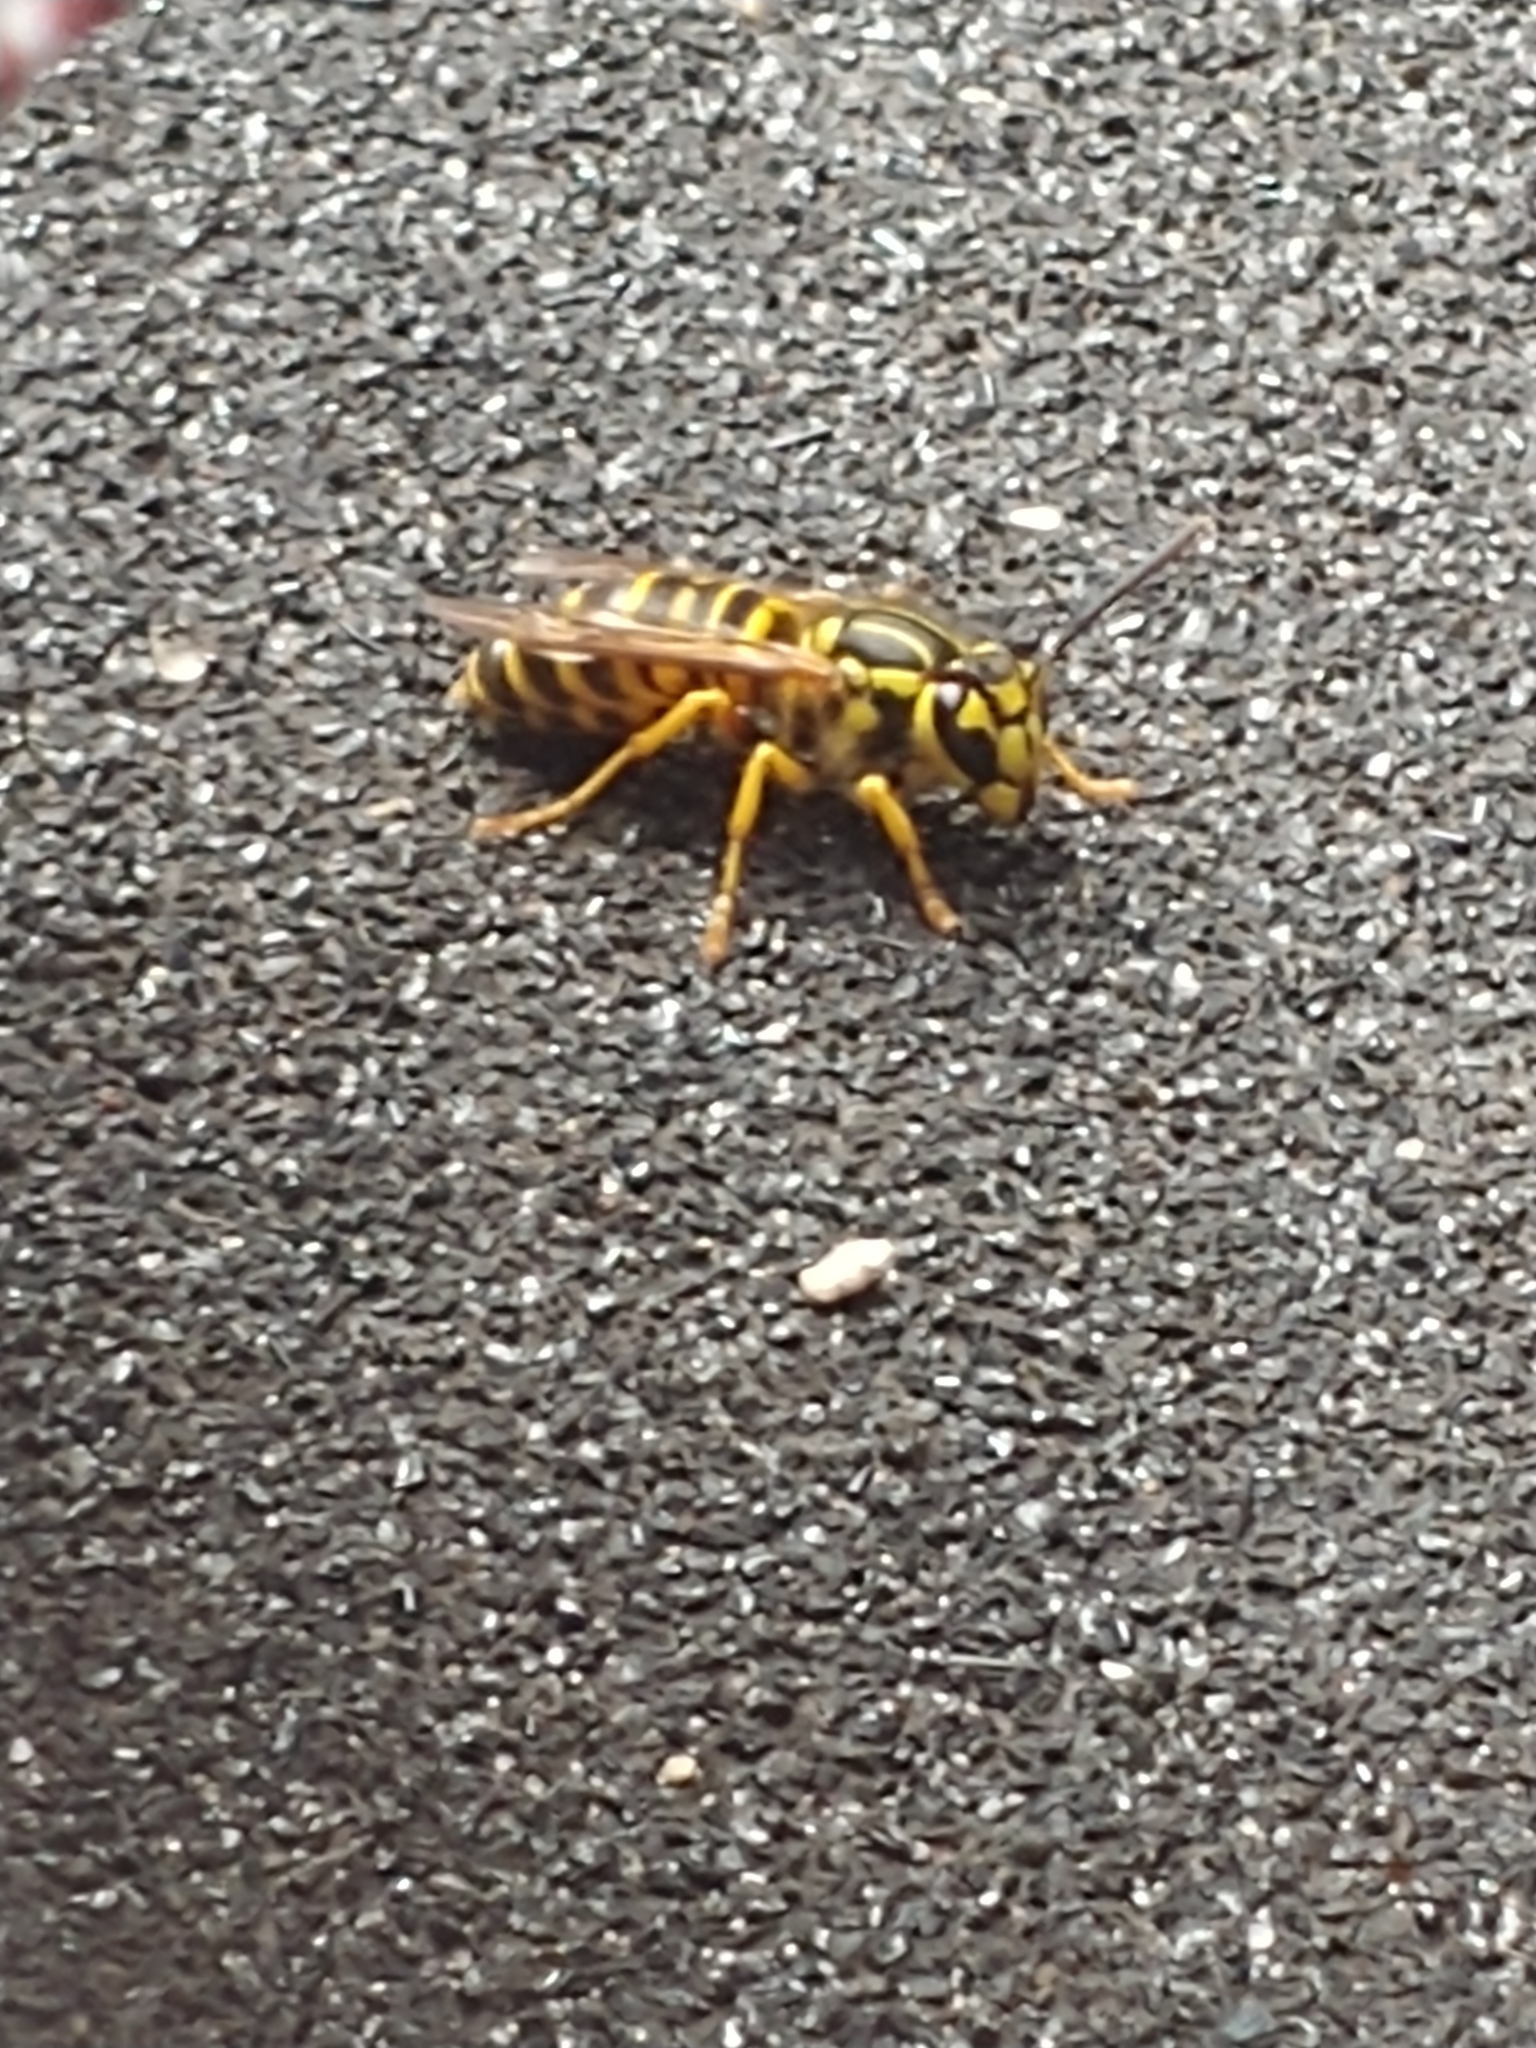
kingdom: Animalia
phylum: Arthropoda
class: Insecta
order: Hymenoptera
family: Vespidae
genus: Vespula
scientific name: Vespula squamosa
